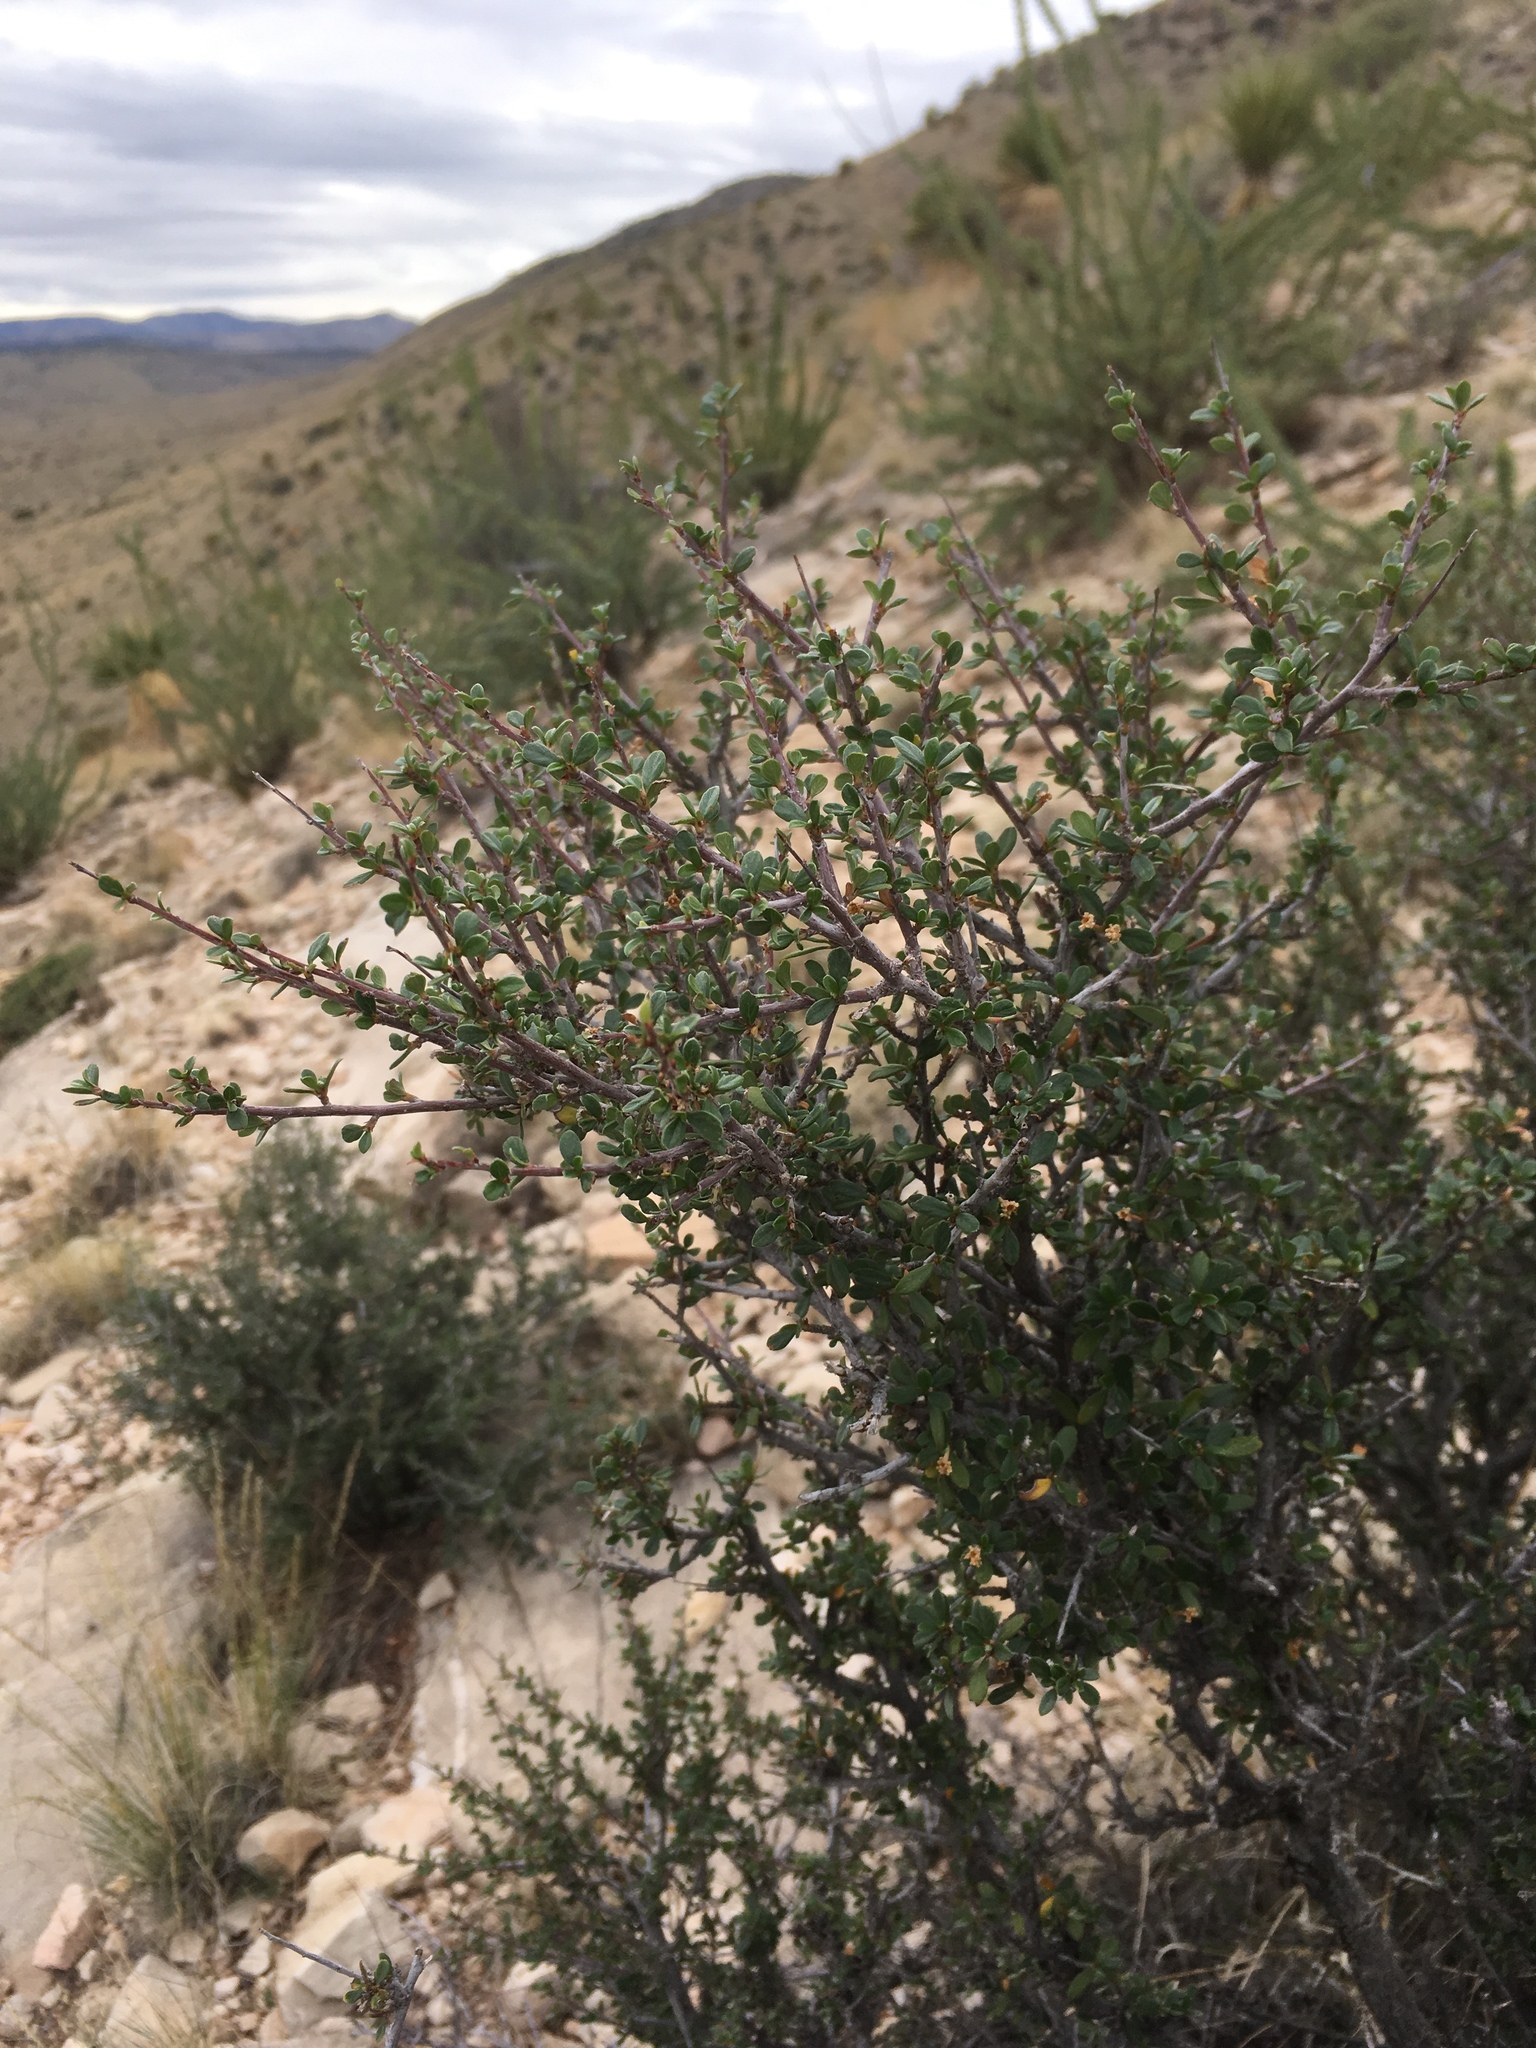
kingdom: Plantae
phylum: Tracheophyta
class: Magnoliopsida
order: Rosales
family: Rosaceae
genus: Cercocarpus
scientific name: Cercocarpus breviflorus
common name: Wright's mountain-mahogany
